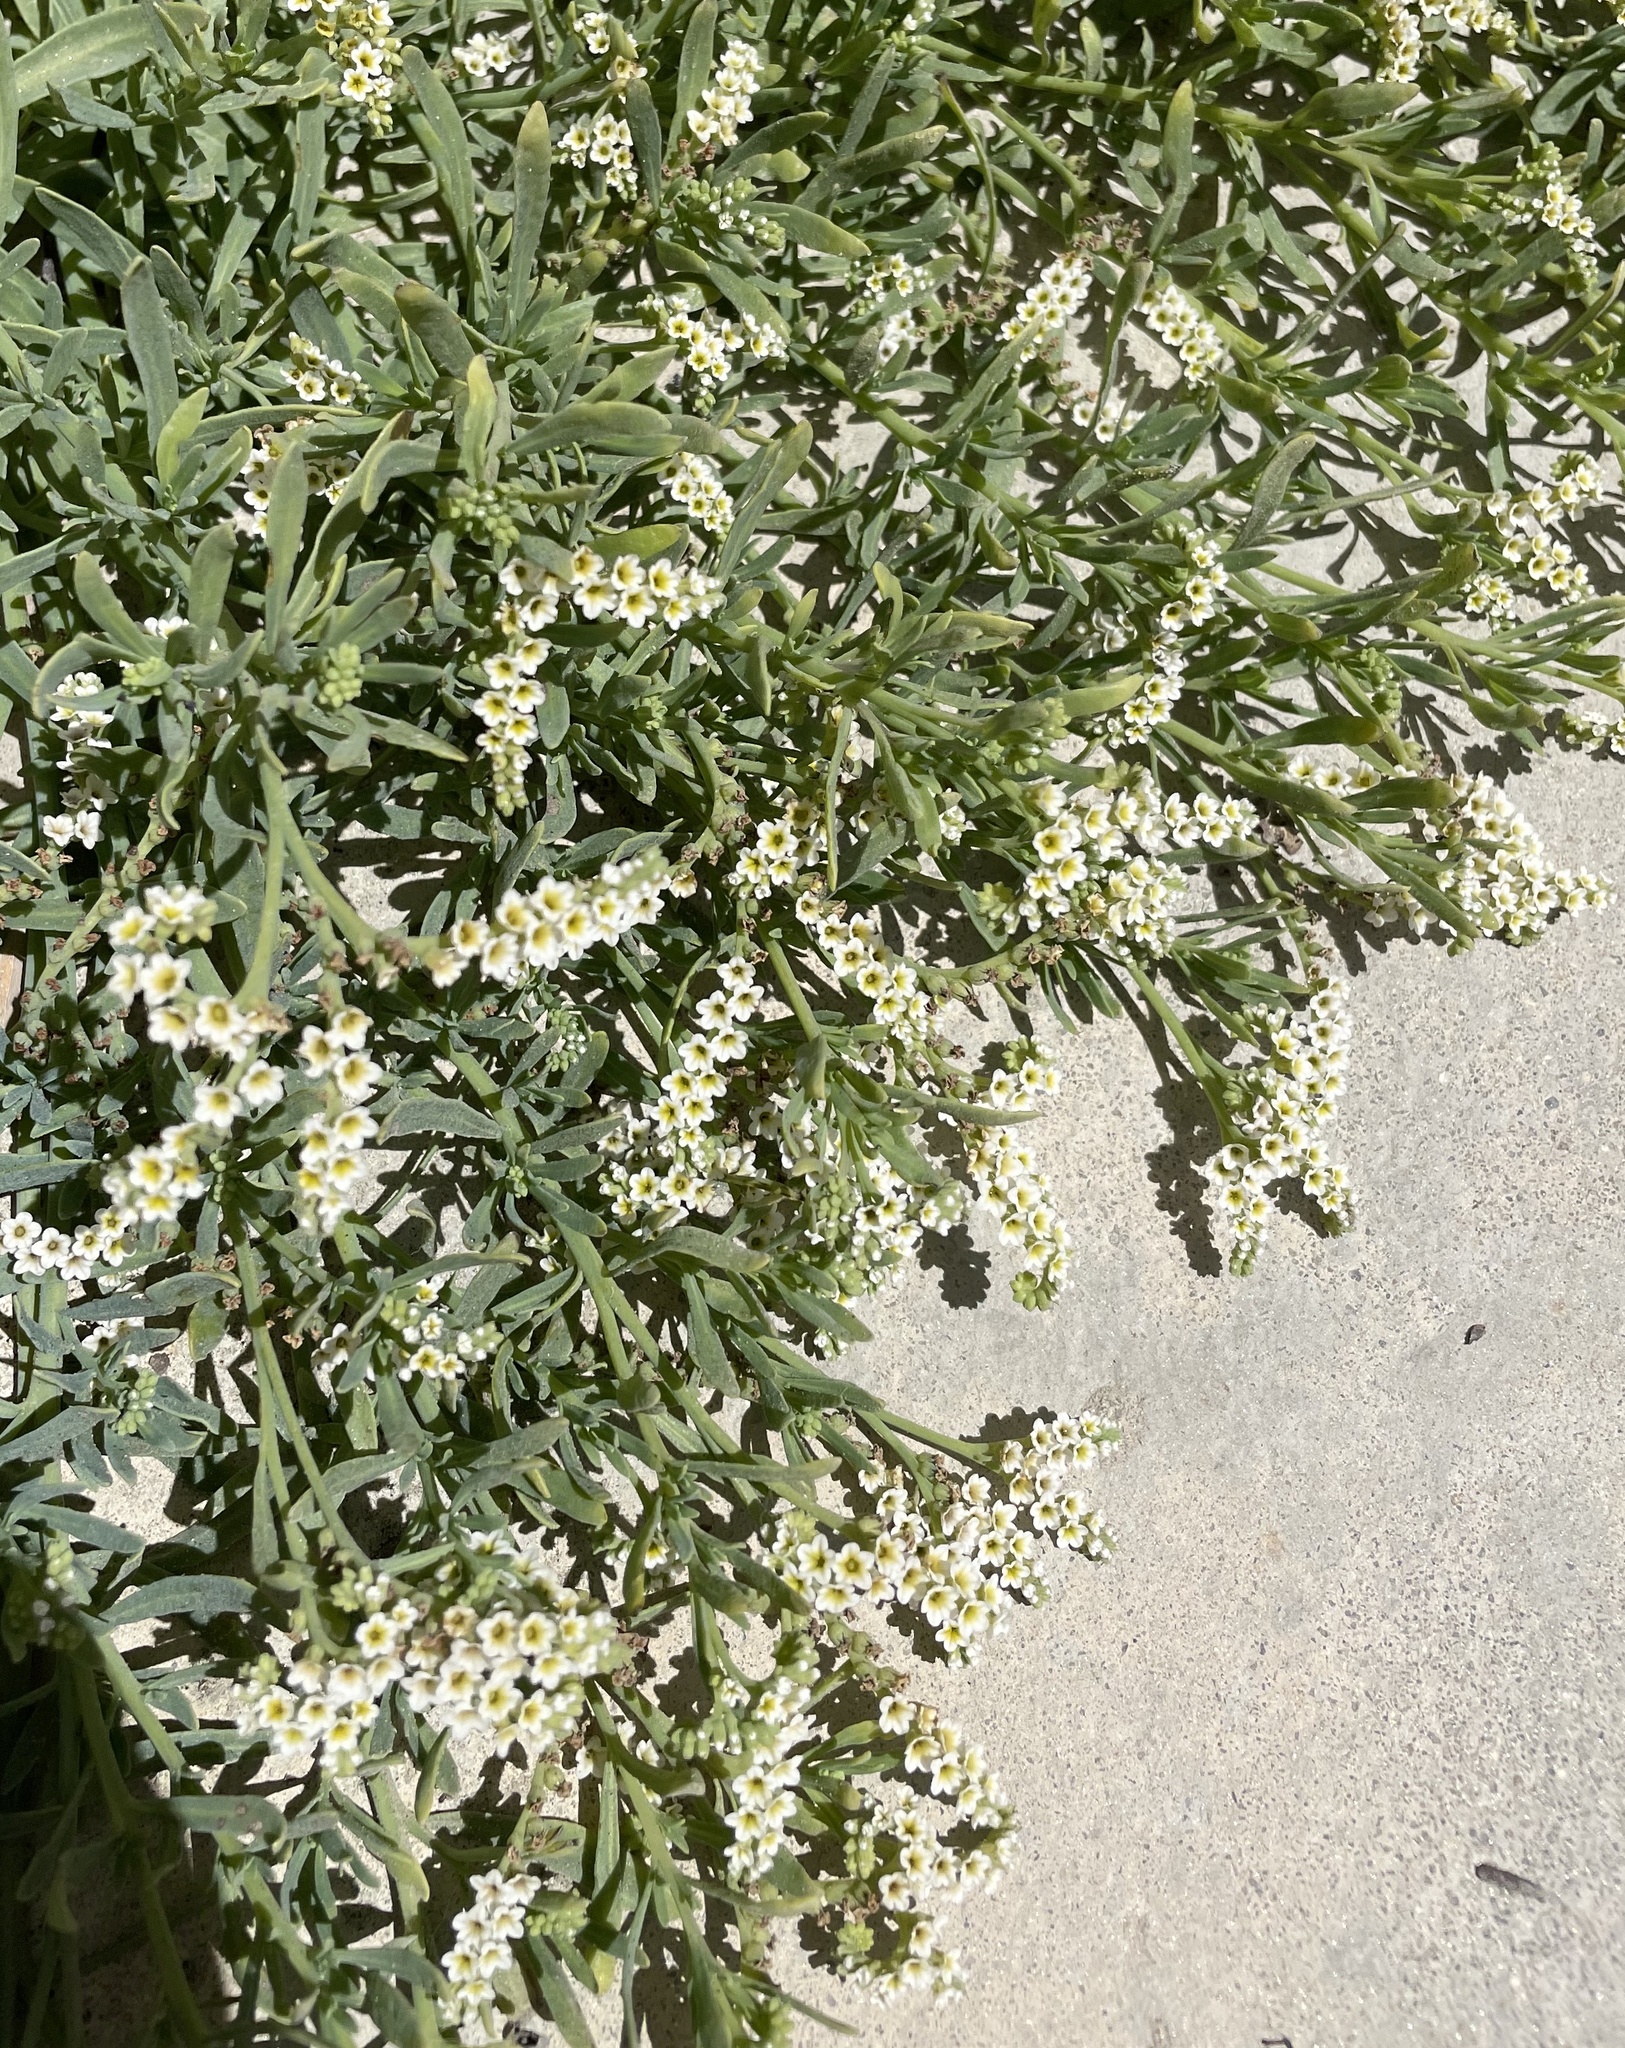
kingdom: Plantae
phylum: Tracheophyta
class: Magnoliopsida
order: Boraginales
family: Heliotropiaceae
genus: Heliotropium
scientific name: Heliotropium curassavicum
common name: Seaside heliotrope
